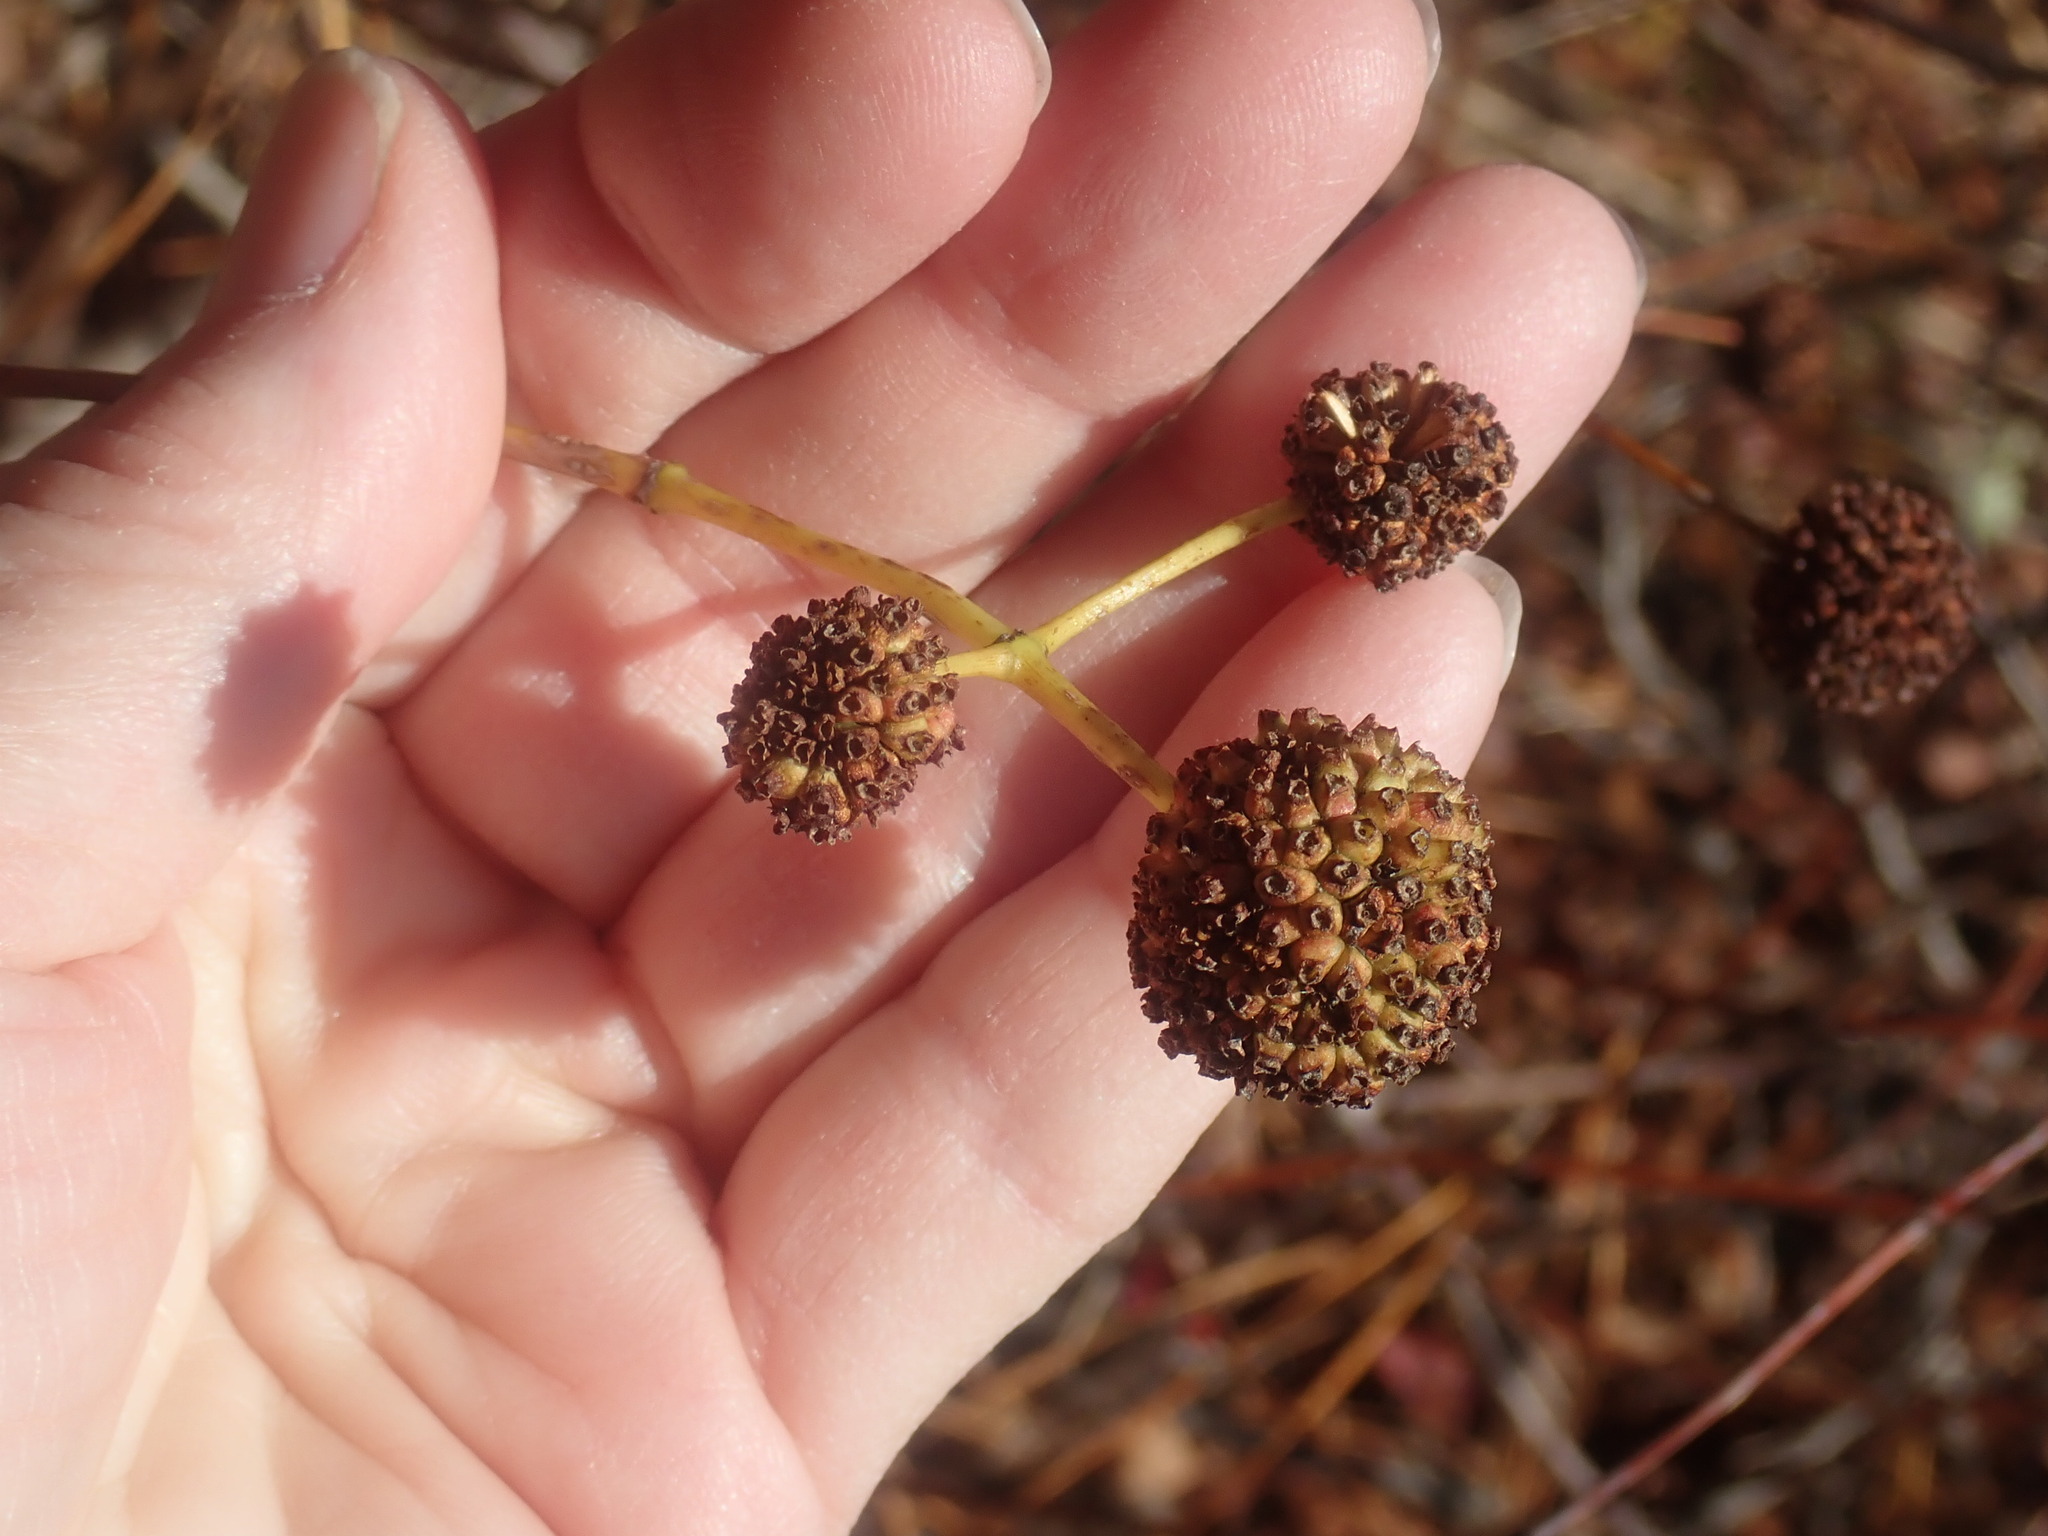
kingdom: Plantae
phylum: Tracheophyta
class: Magnoliopsida
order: Gentianales
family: Rubiaceae
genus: Cephalanthus
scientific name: Cephalanthus occidentalis
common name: Button-willow
